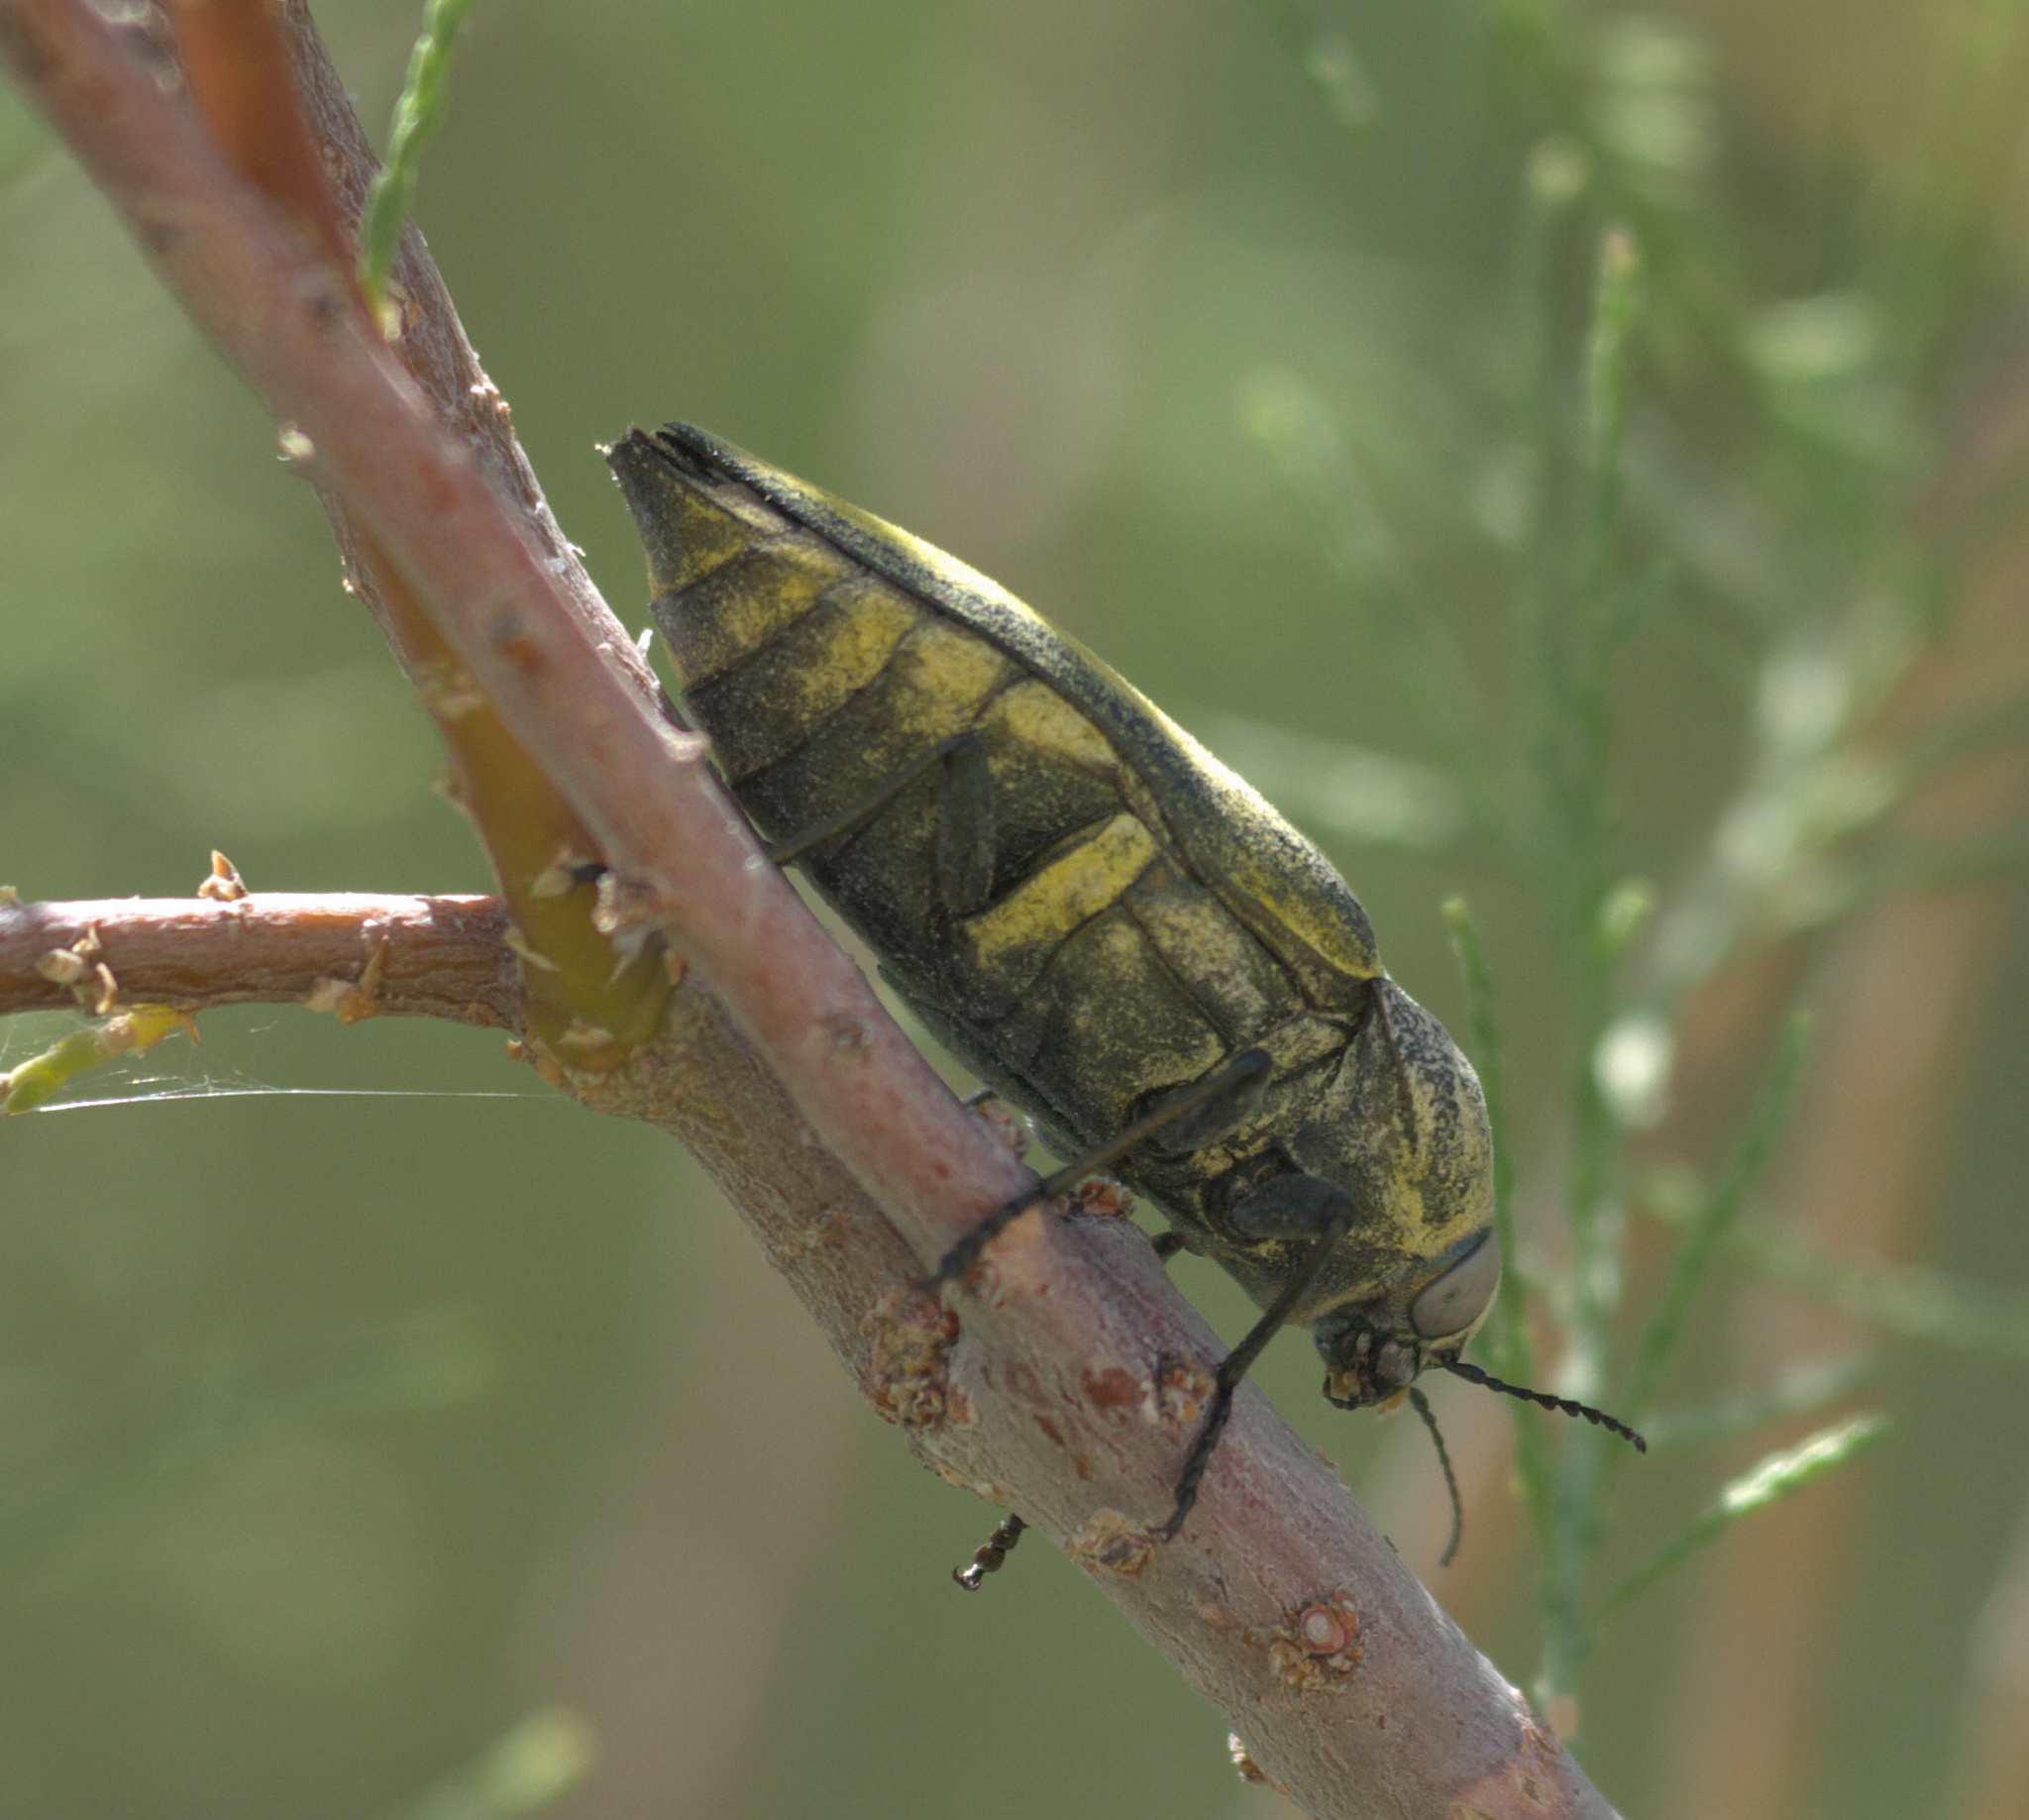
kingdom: Animalia
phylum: Arthropoda
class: Insecta
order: Coleoptera
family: Buprestidae
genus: Gyascutus
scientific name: Gyascutus planicosta
